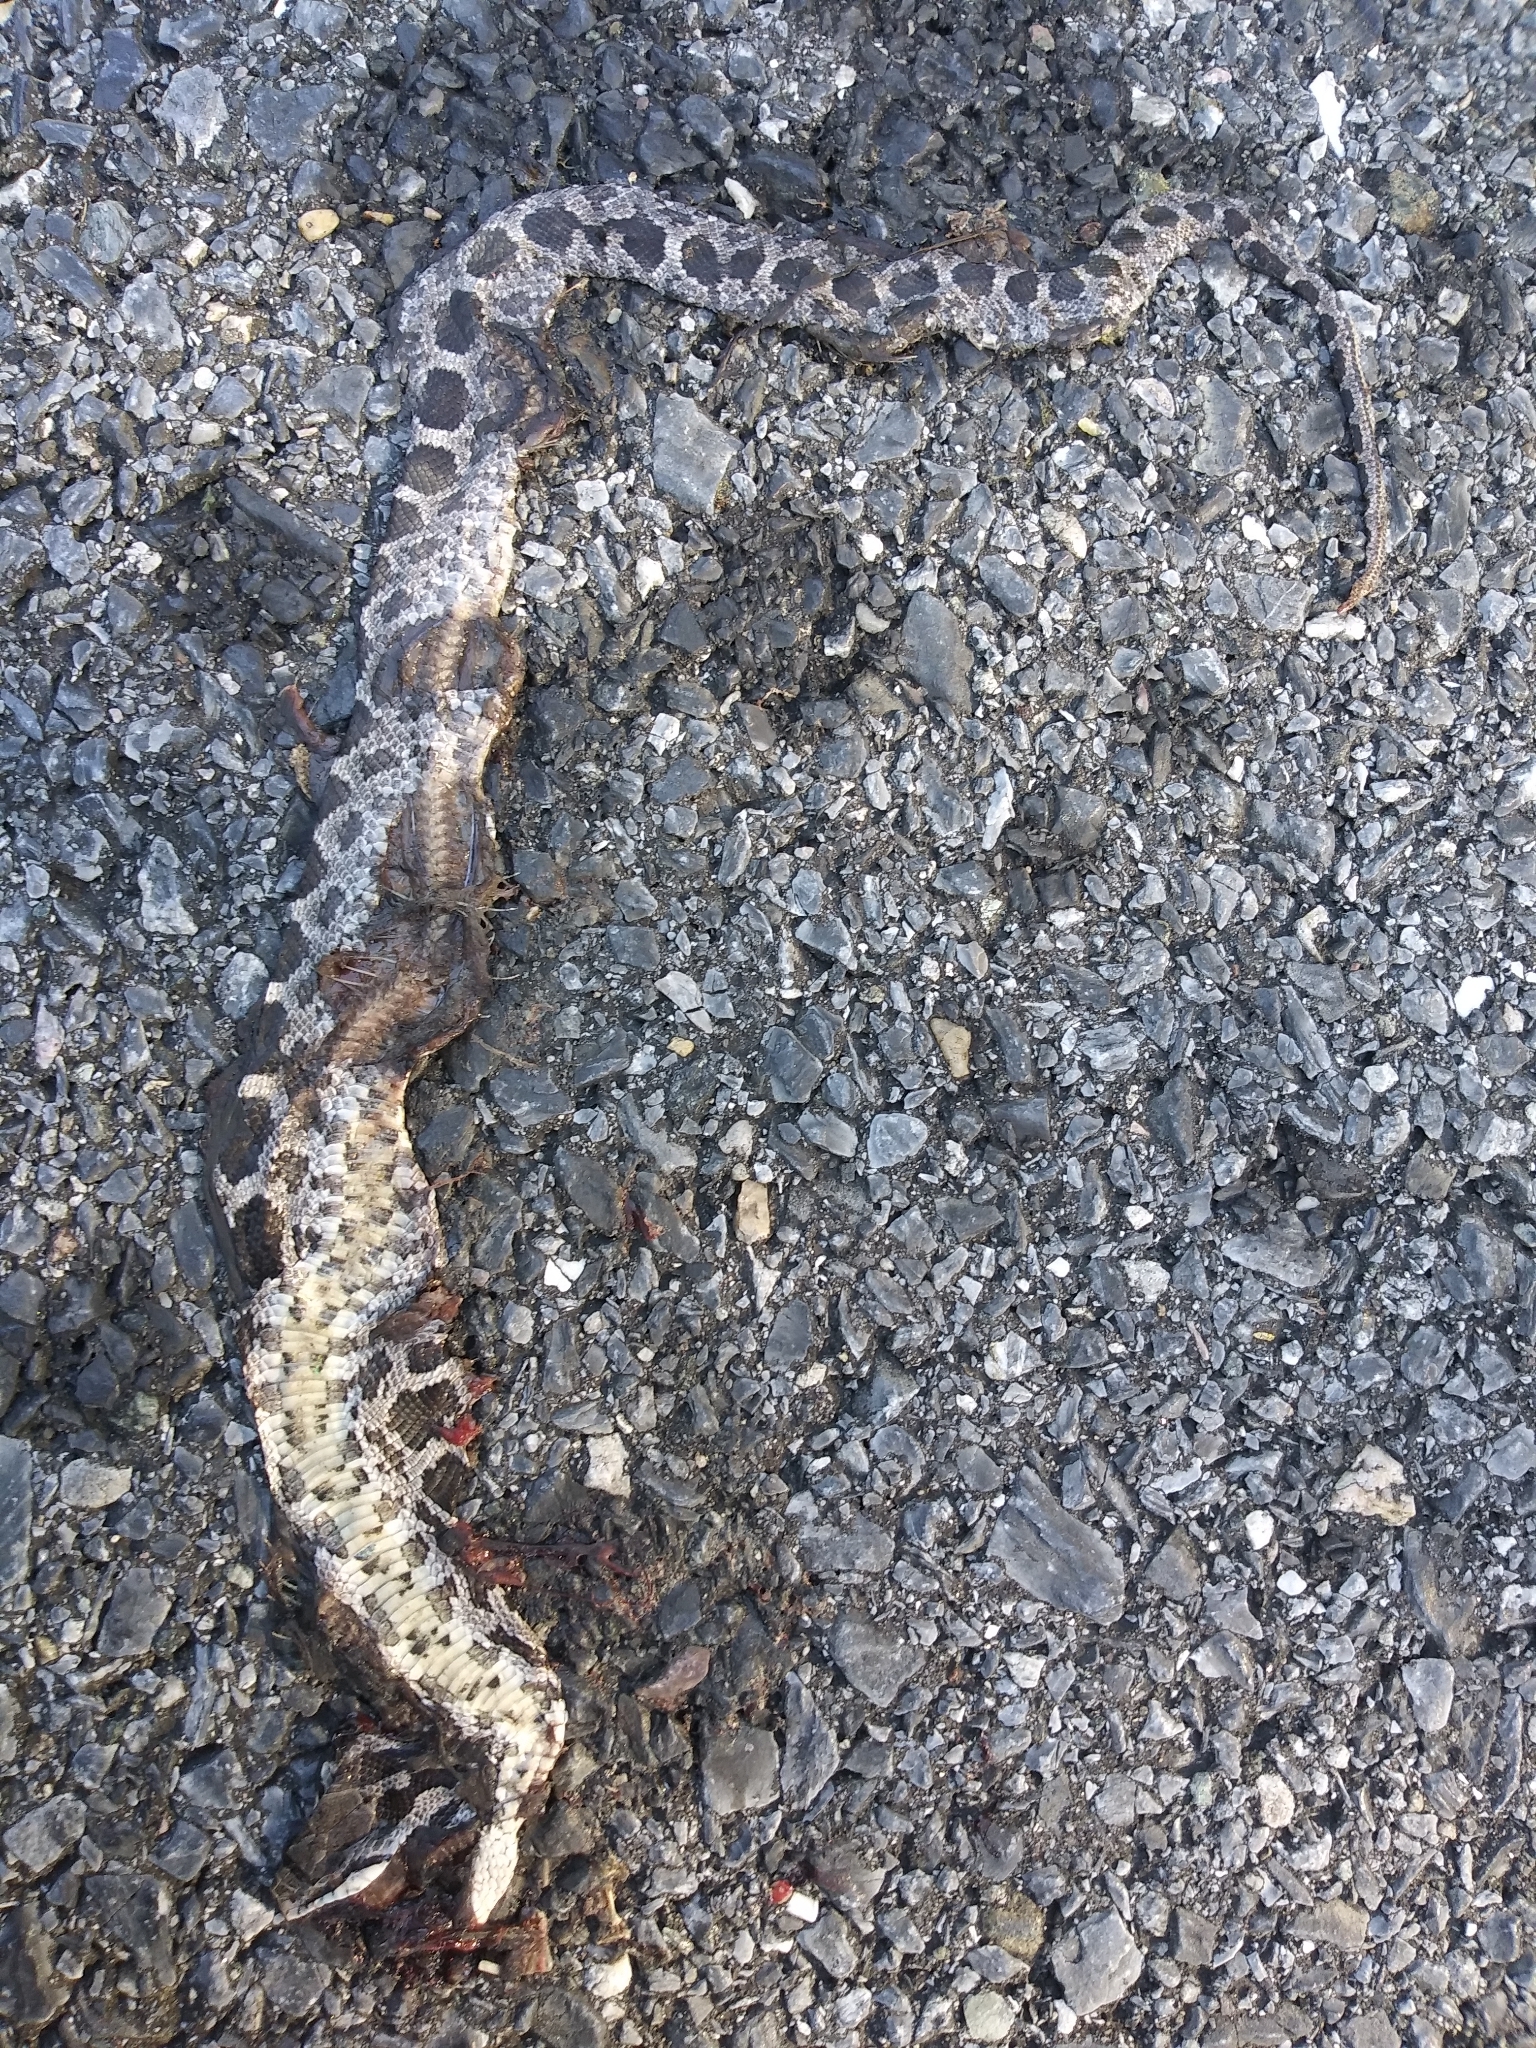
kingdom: Animalia
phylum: Chordata
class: Squamata
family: Colubridae
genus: Pantherophis
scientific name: Pantherophis
